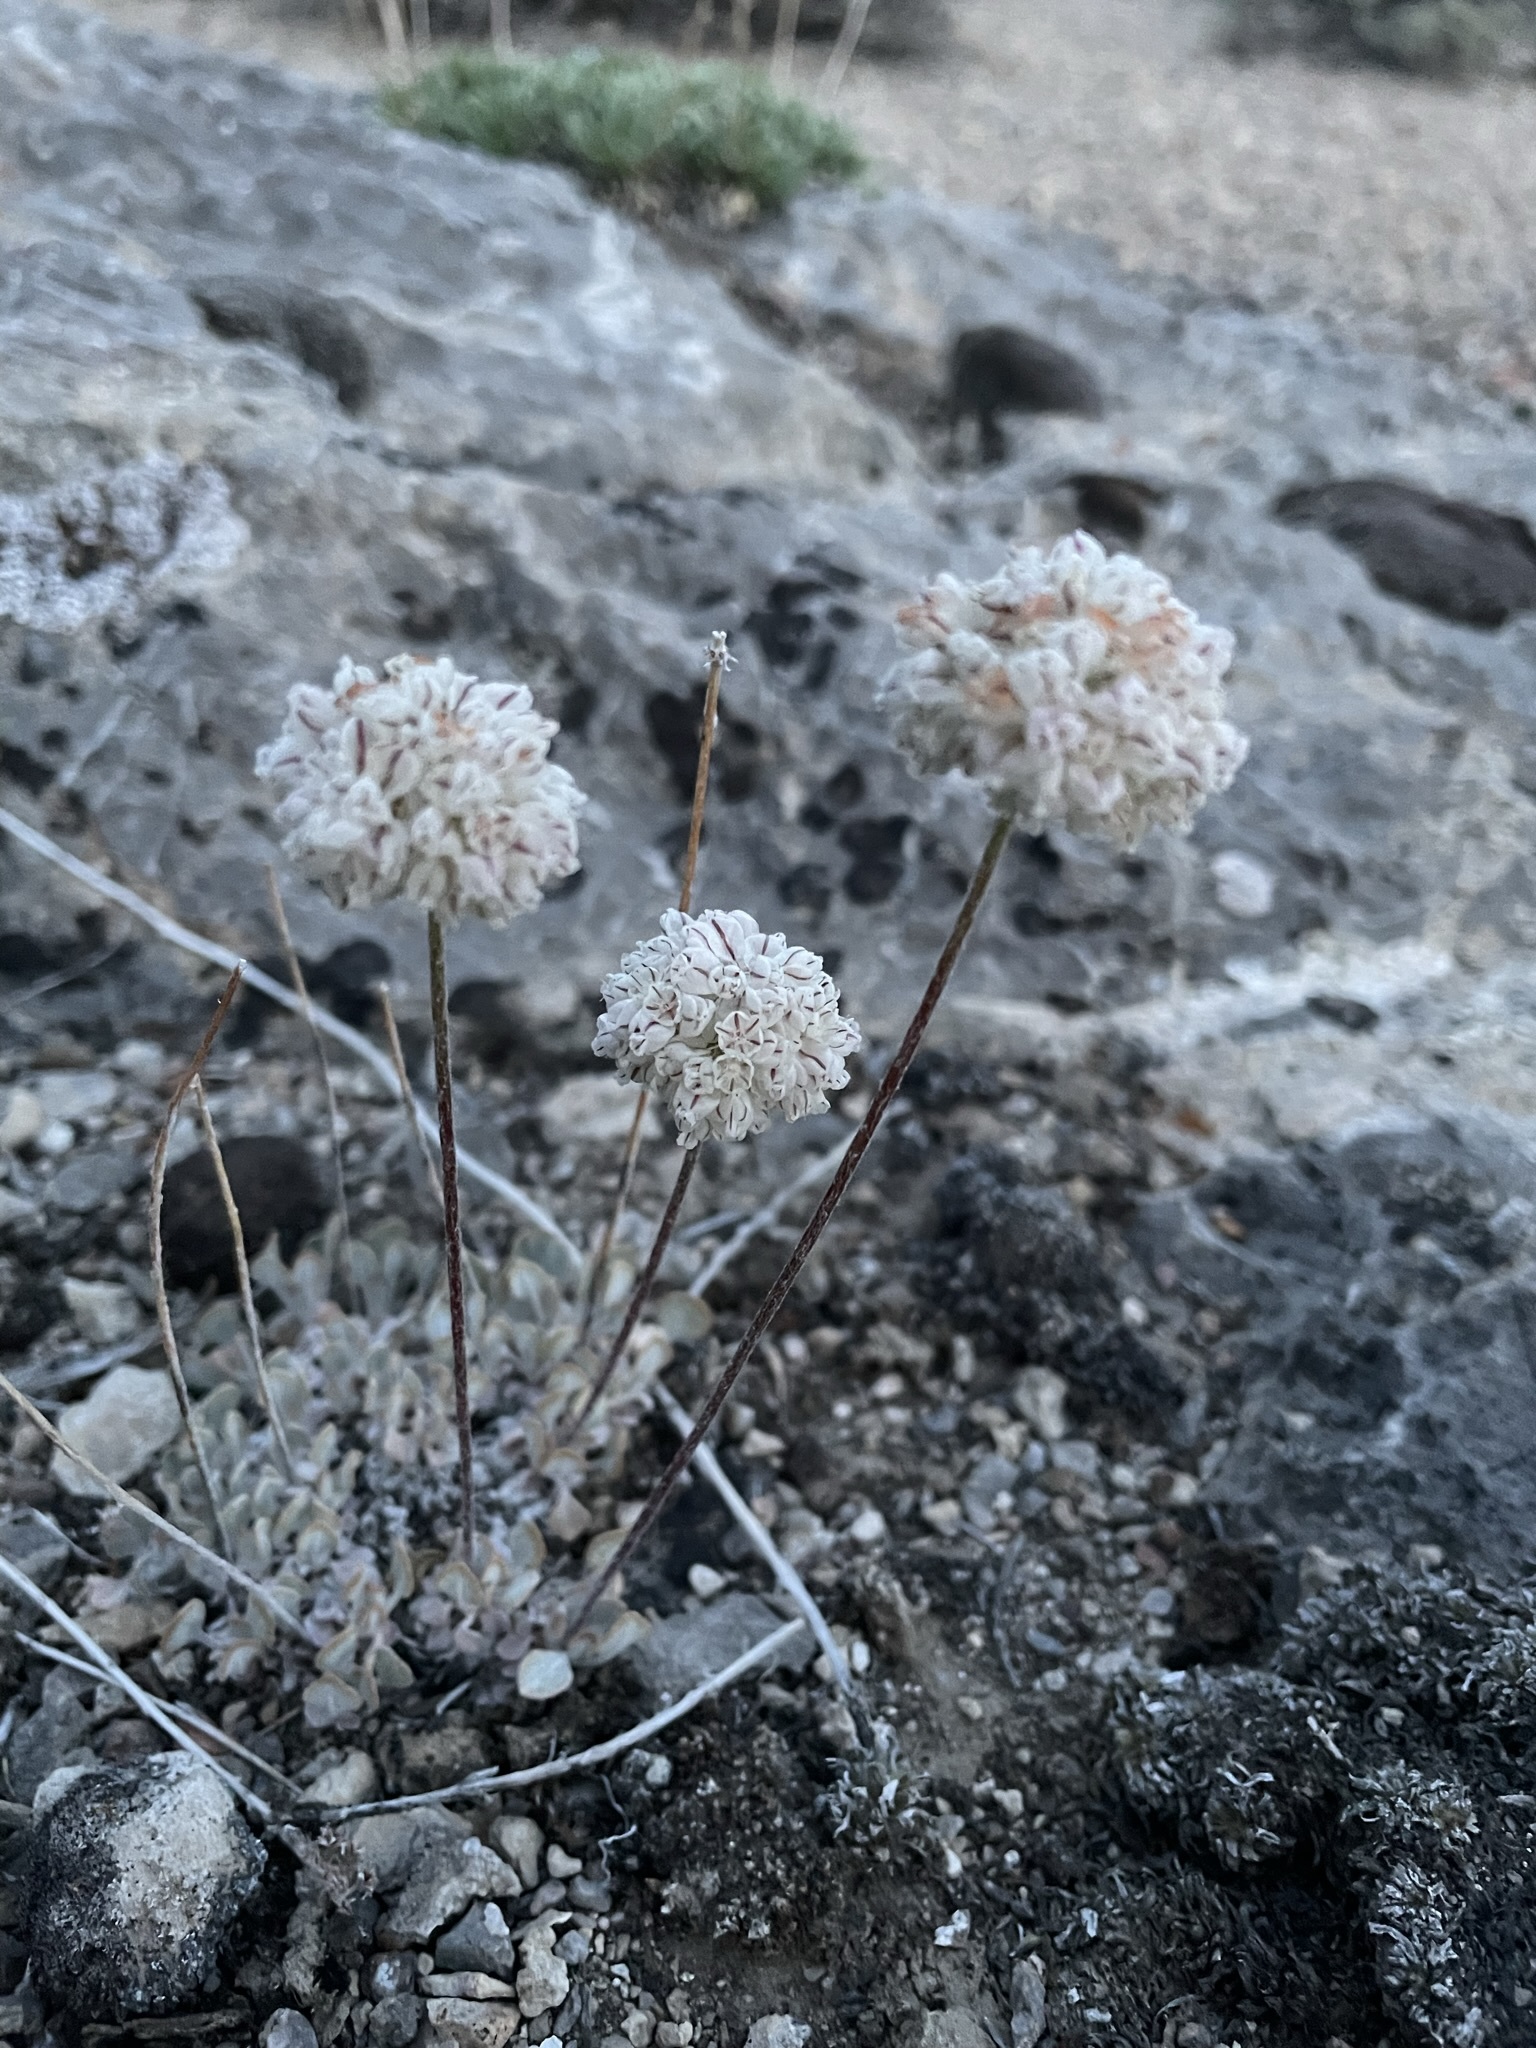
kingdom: Plantae
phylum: Tracheophyta
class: Magnoliopsida
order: Caryophyllales
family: Polygonaceae
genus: Eriogonum
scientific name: Eriogonum ovalifolium
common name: Cushion buckwheat
